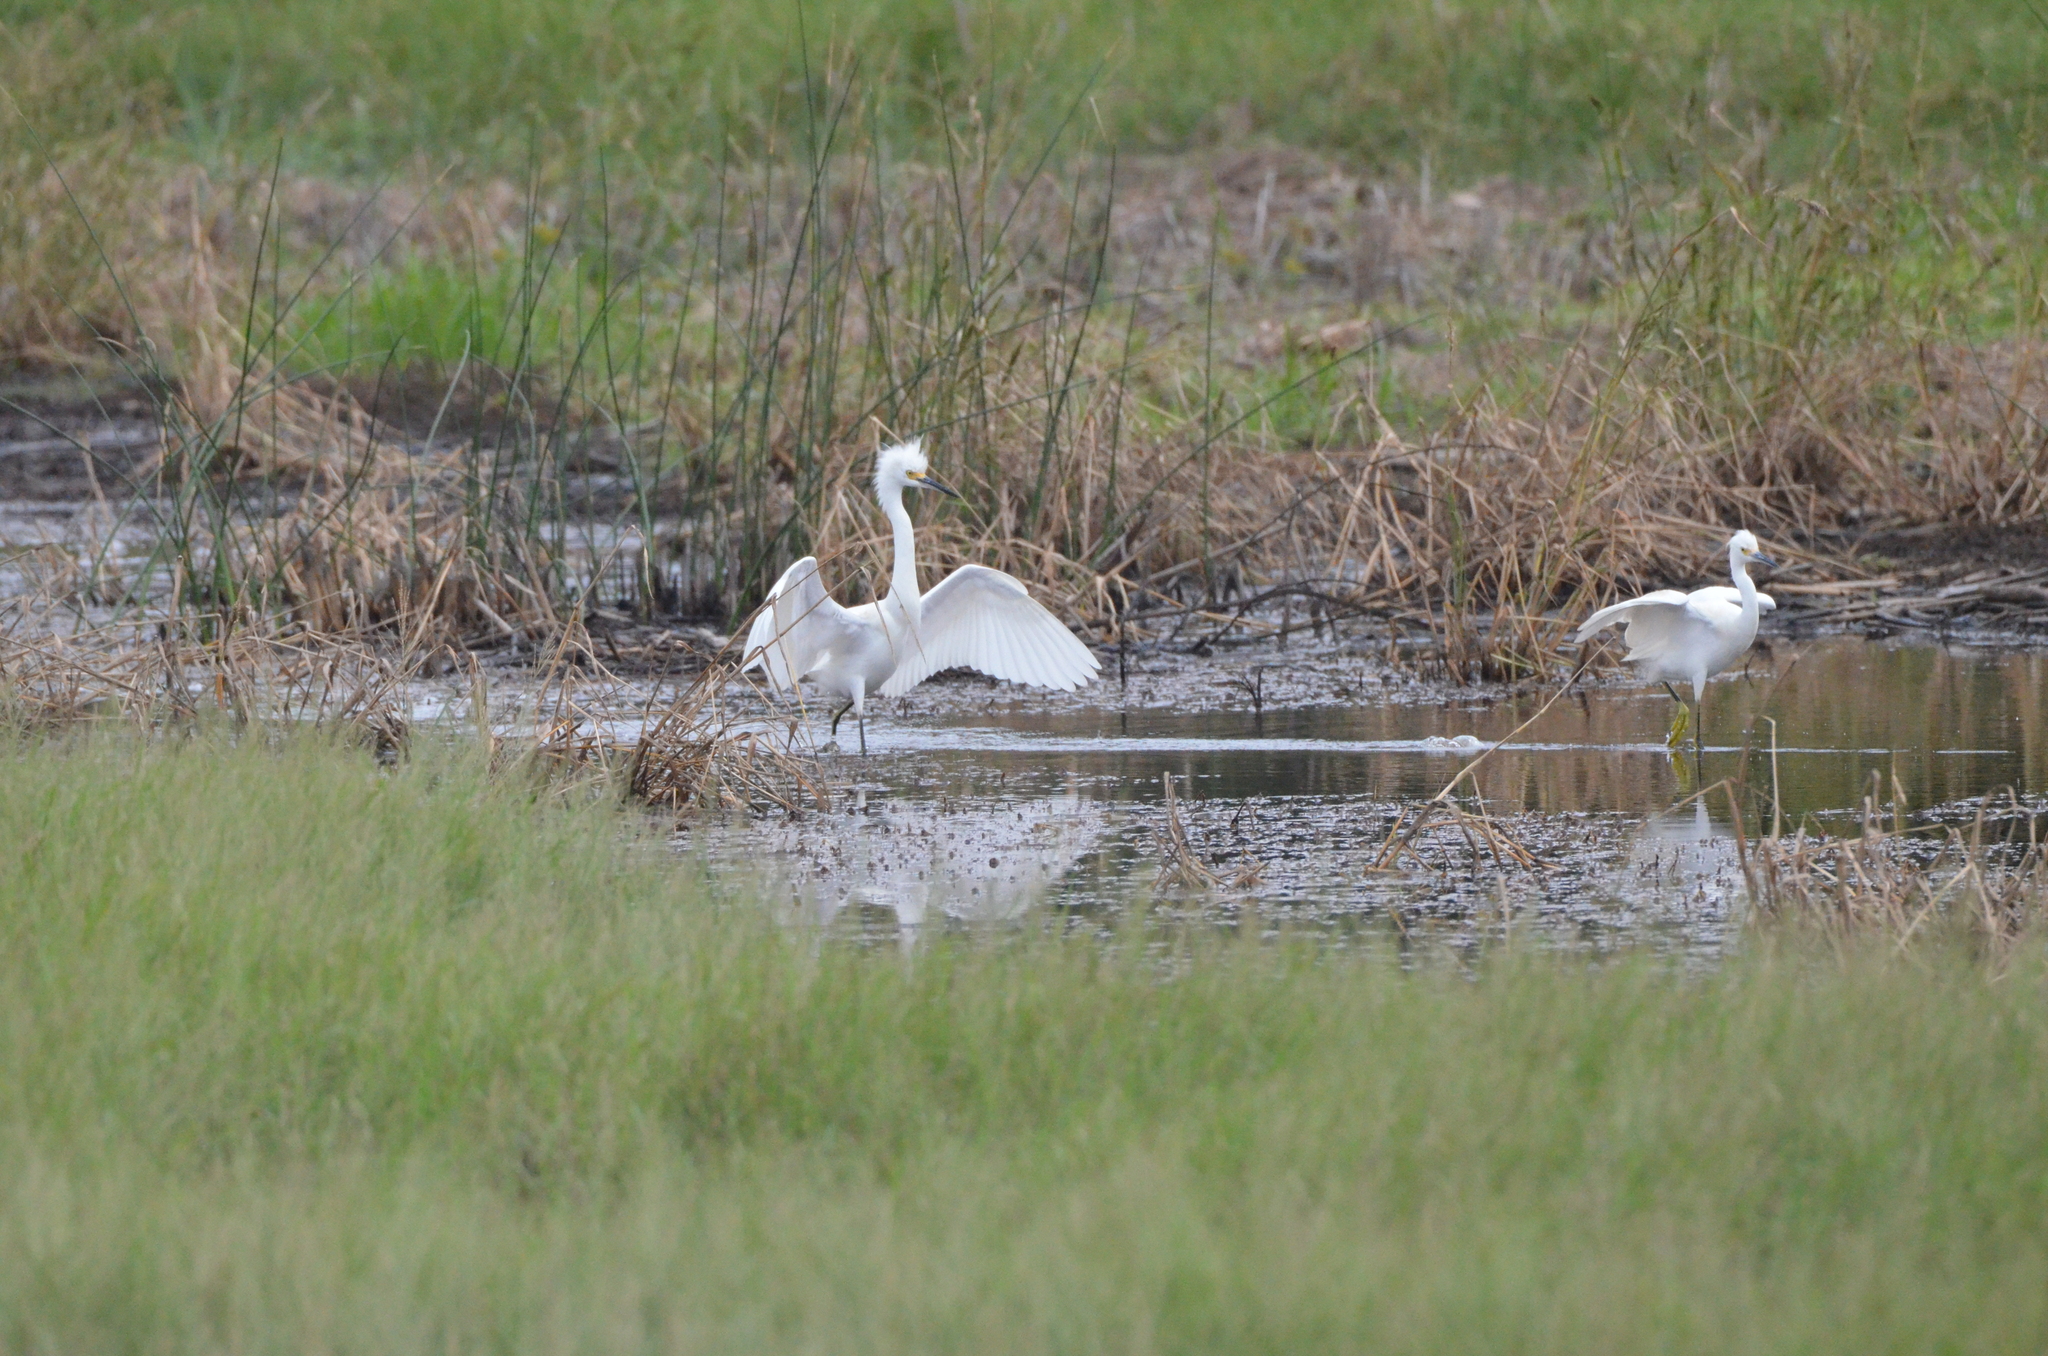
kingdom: Animalia
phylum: Chordata
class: Aves
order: Pelecaniformes
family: Ardeidae
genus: Egretta
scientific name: Egretta thula
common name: Snowy egret
